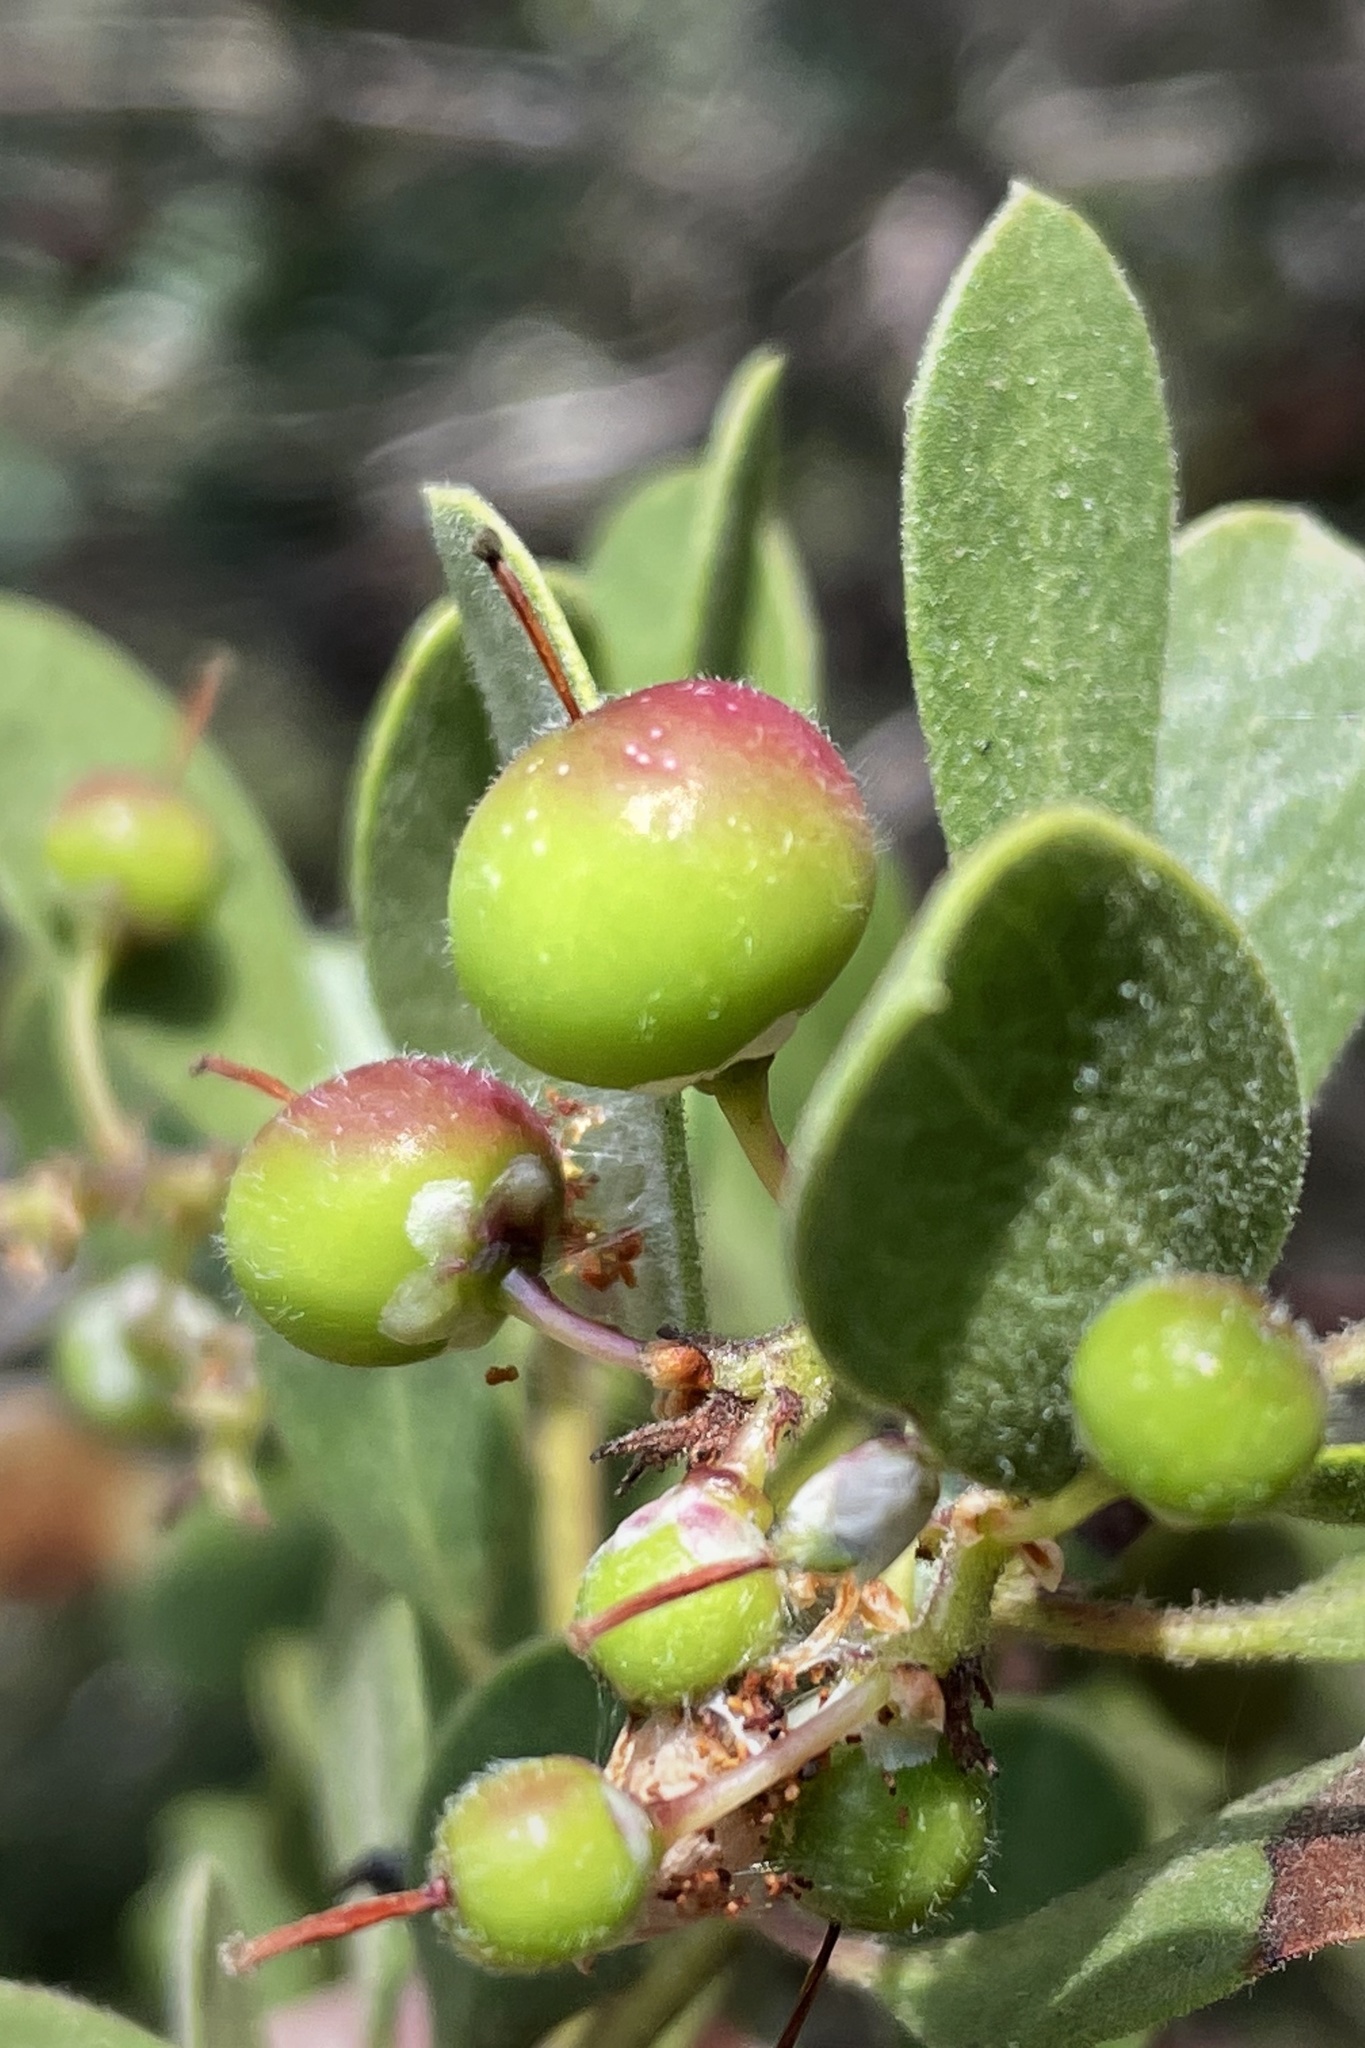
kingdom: Plantae
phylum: Tracheophyta
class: Magnoliopsida
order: Ericales
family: Ericaceae
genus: Arctostaphylos
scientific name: Arctostaphylos bakeri
